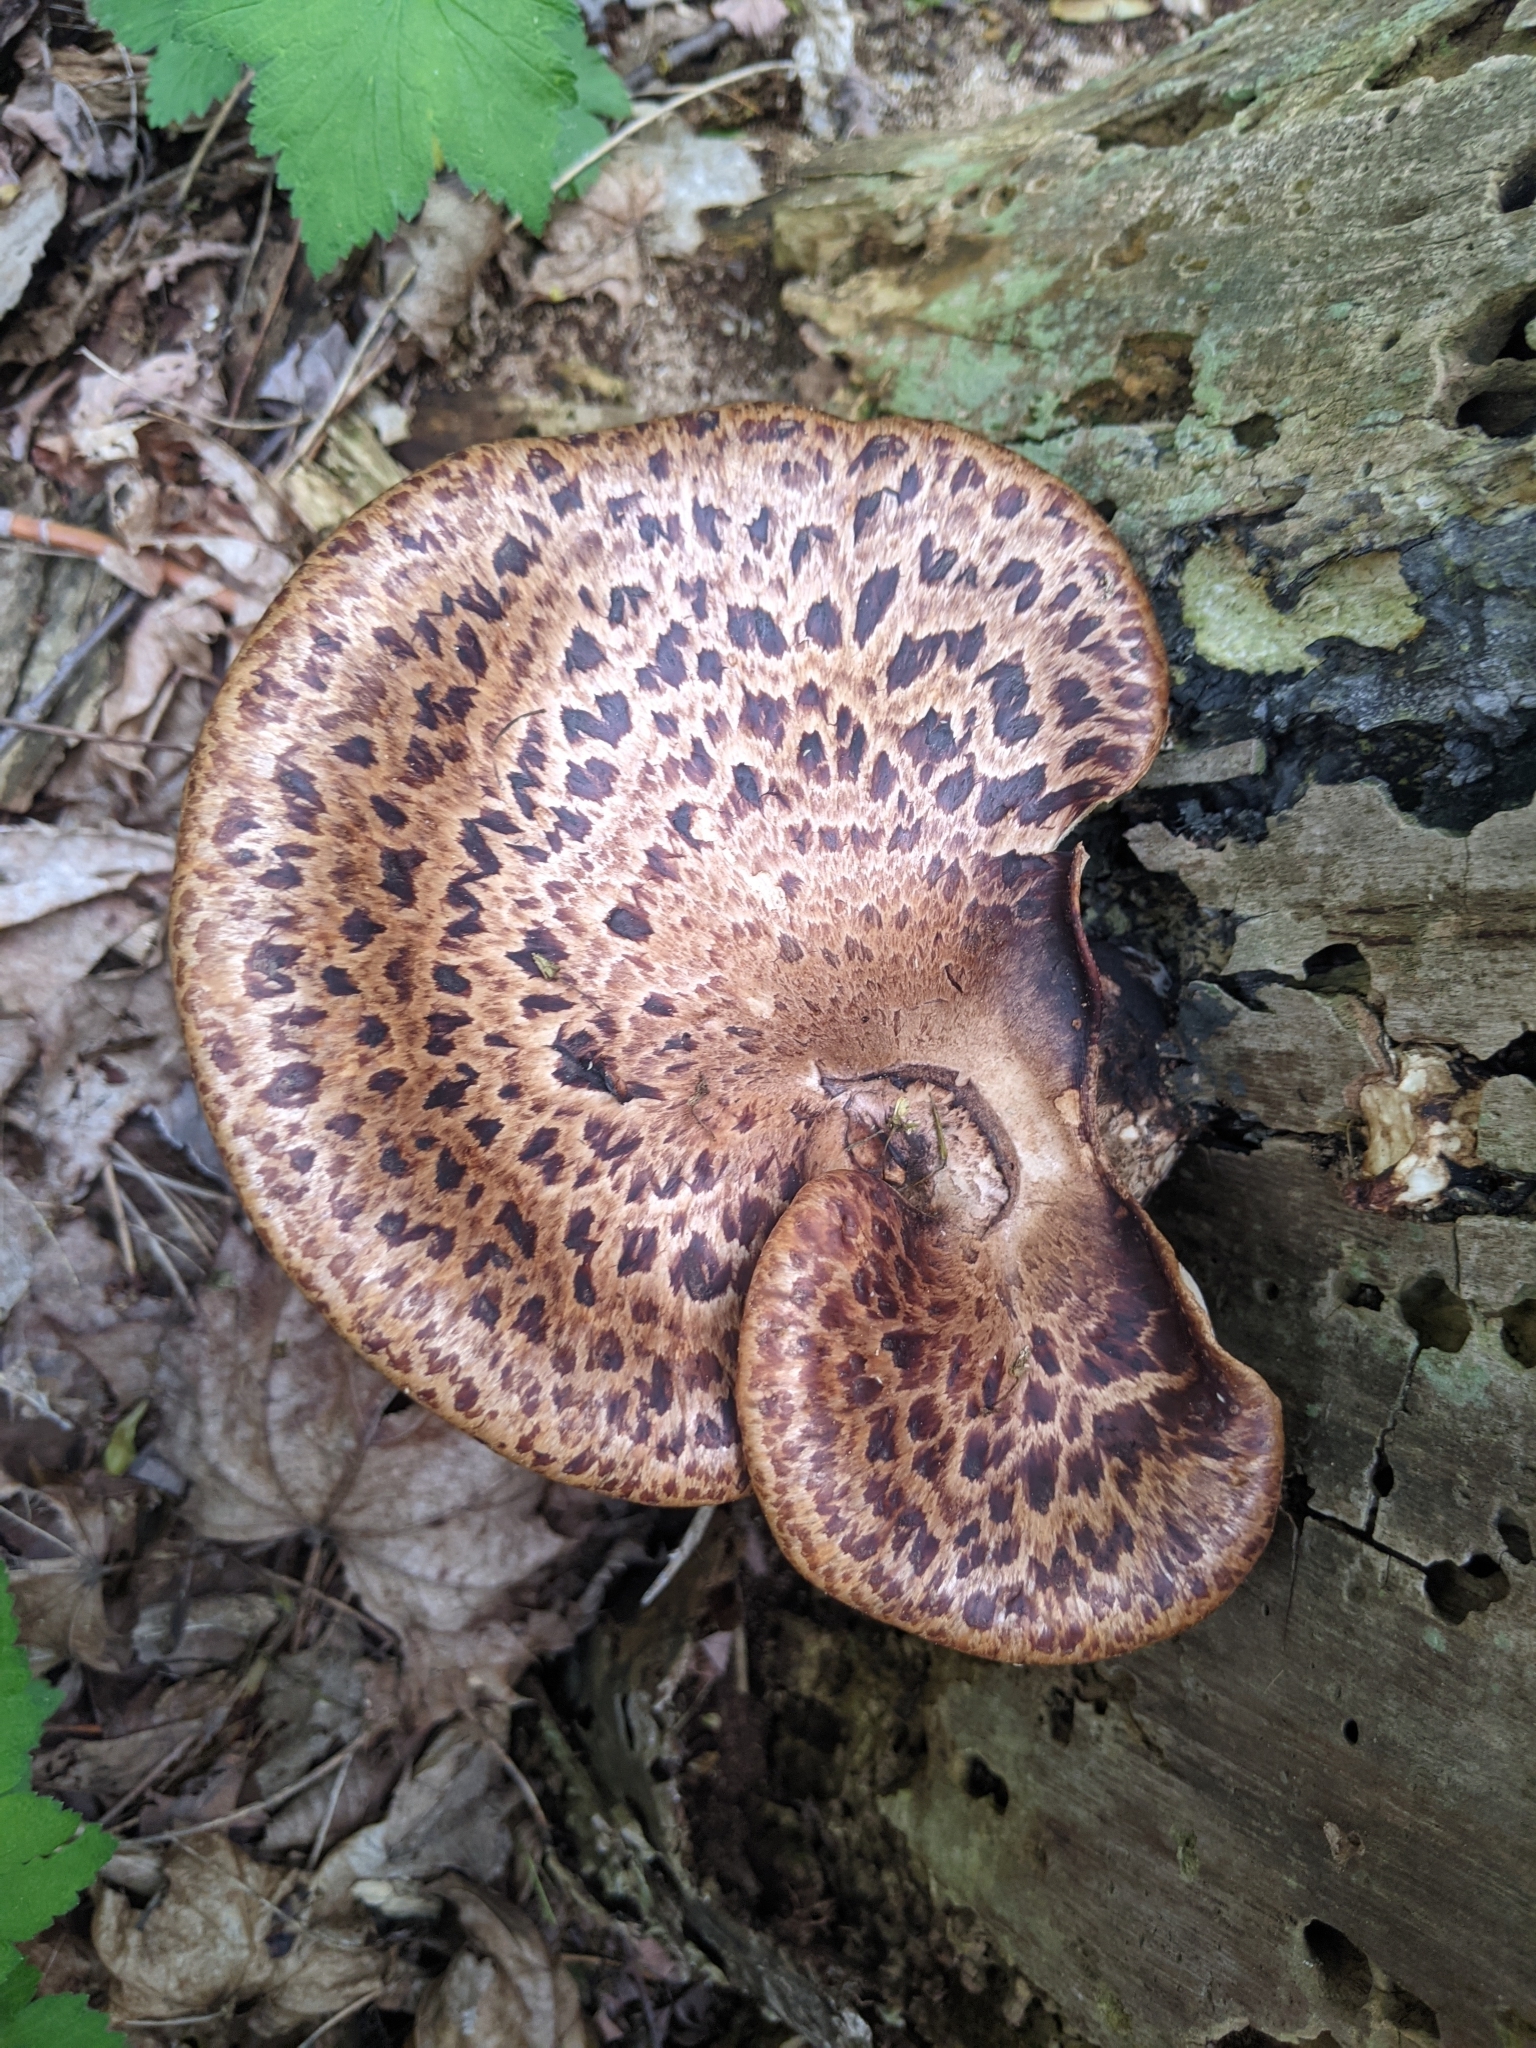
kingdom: Fungi
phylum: Basidiomycota
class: Agaricomycetes
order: Polyporales
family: Polyporaceae
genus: Cerioporus
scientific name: Cerioporus squamosus
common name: Dryad's saddle
